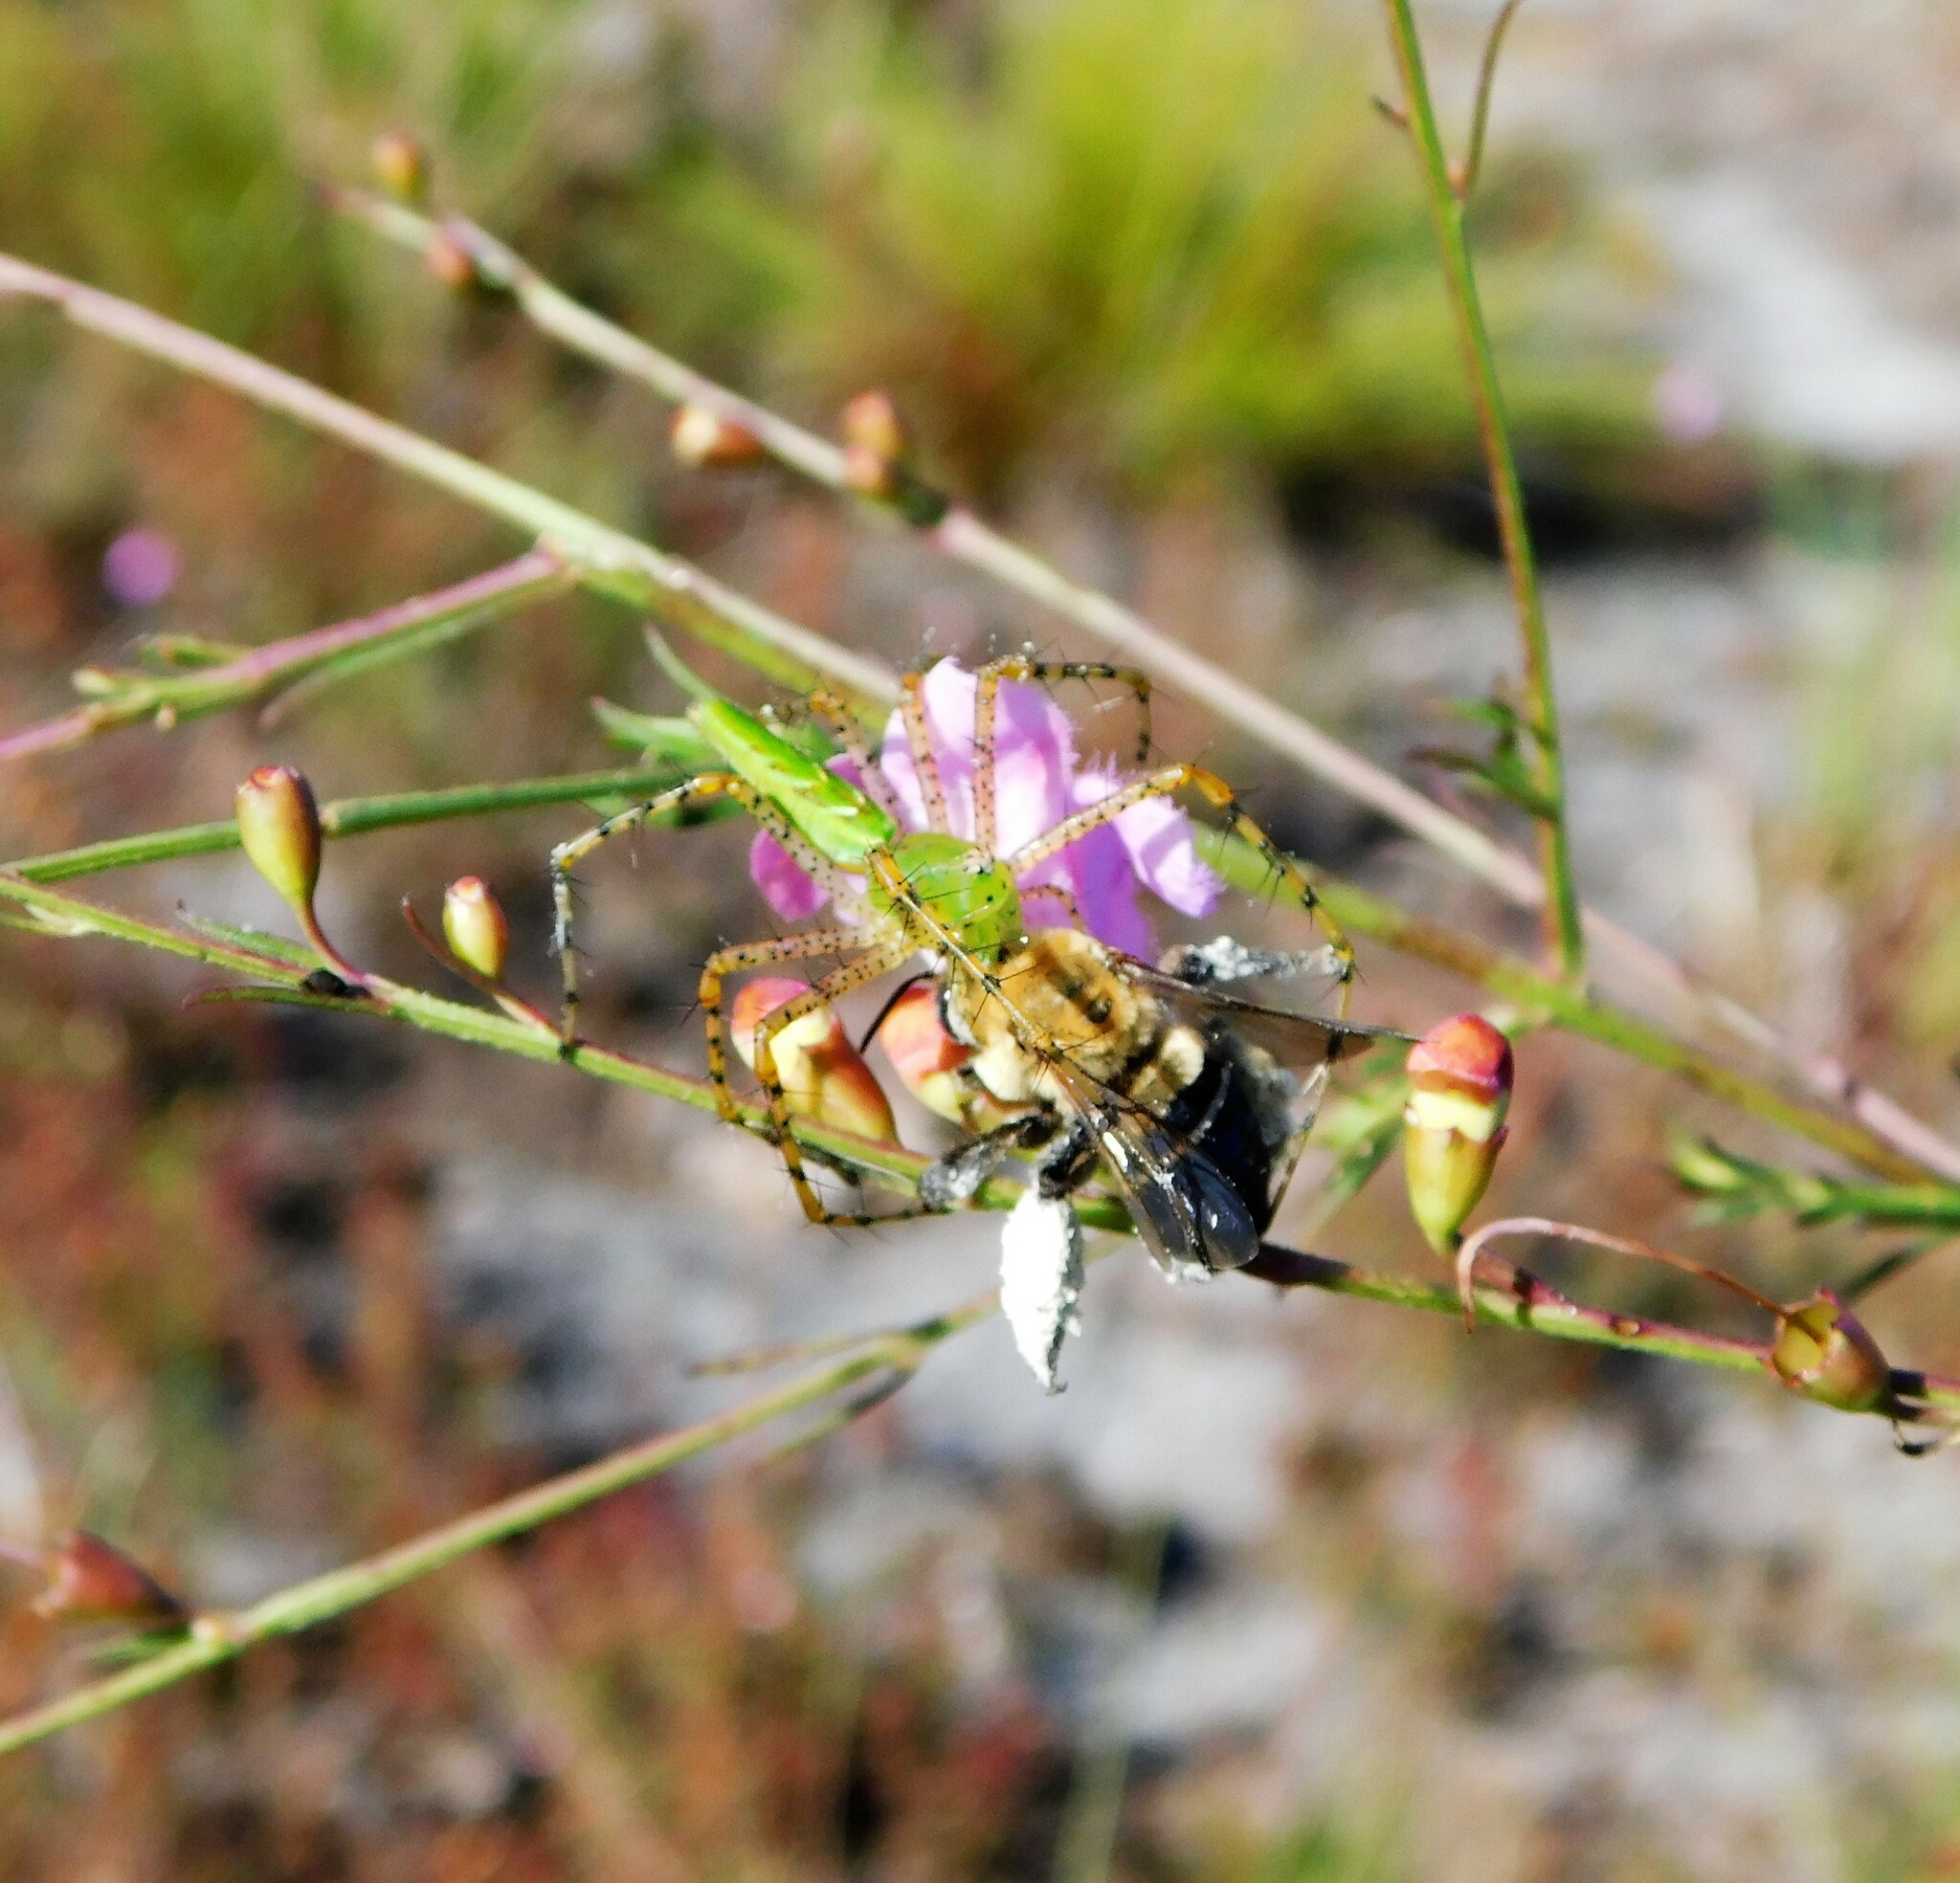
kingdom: Animalia
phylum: Arthropoda
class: Insecta
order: Hymenoptera
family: Apidae
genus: Centris
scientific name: Centris nitida
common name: Oil-collecting bee
